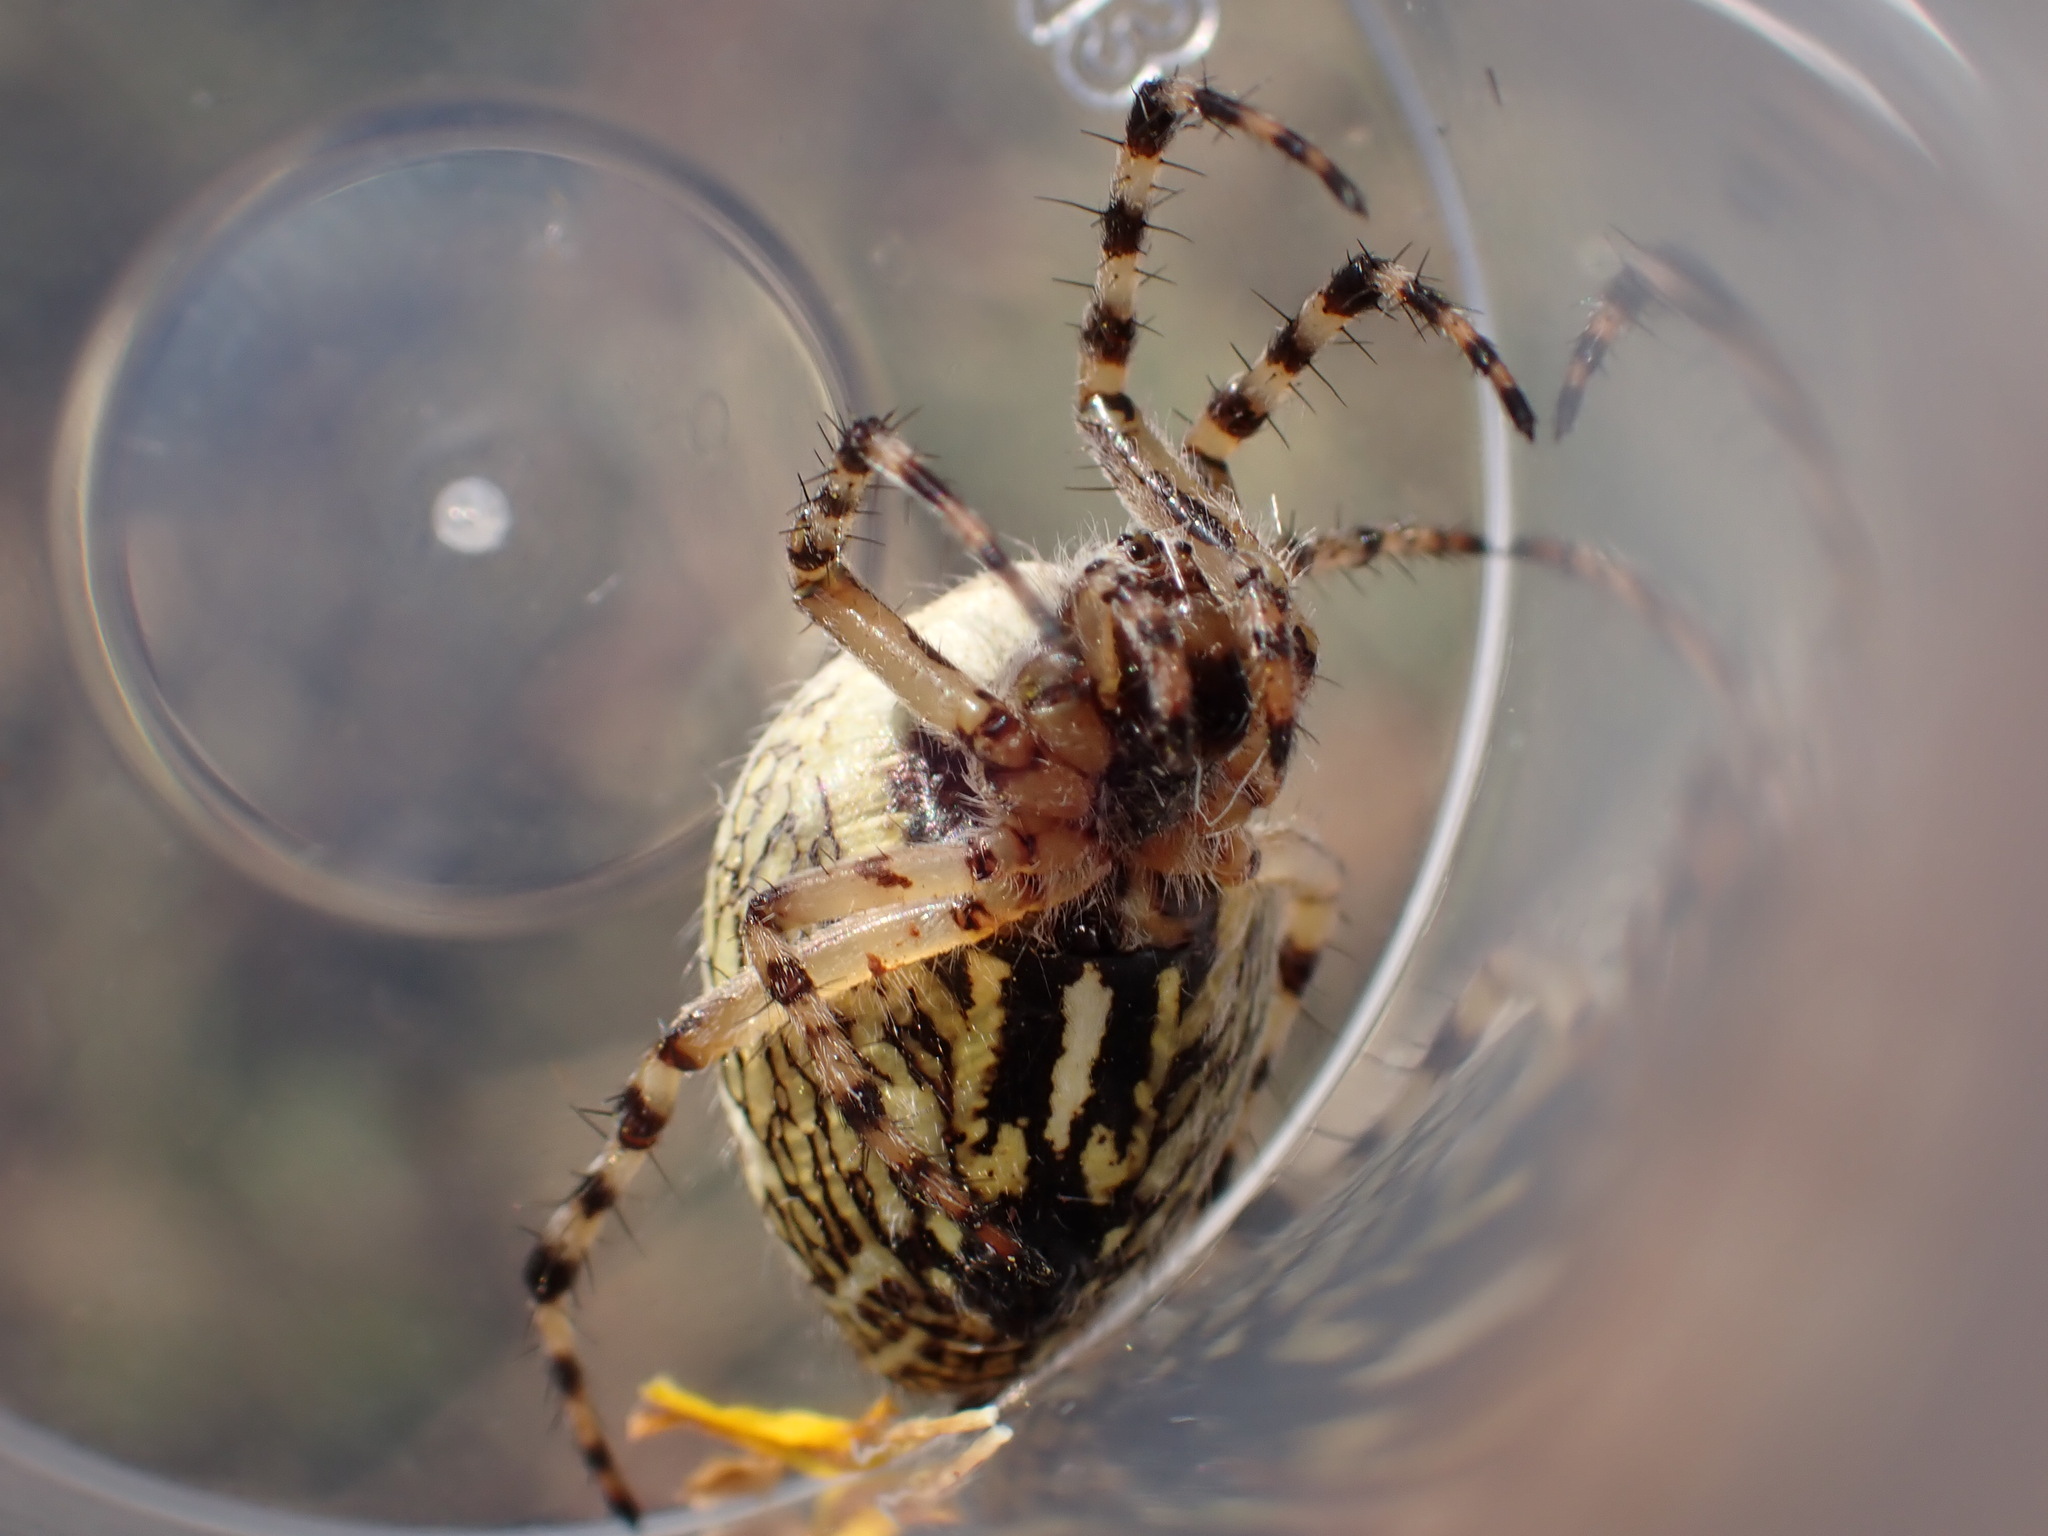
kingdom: Animalia
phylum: Arthropoda
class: Arachnida
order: Araneae
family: Araneidae
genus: Aculepeira
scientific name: Aculepeira ceropegia
